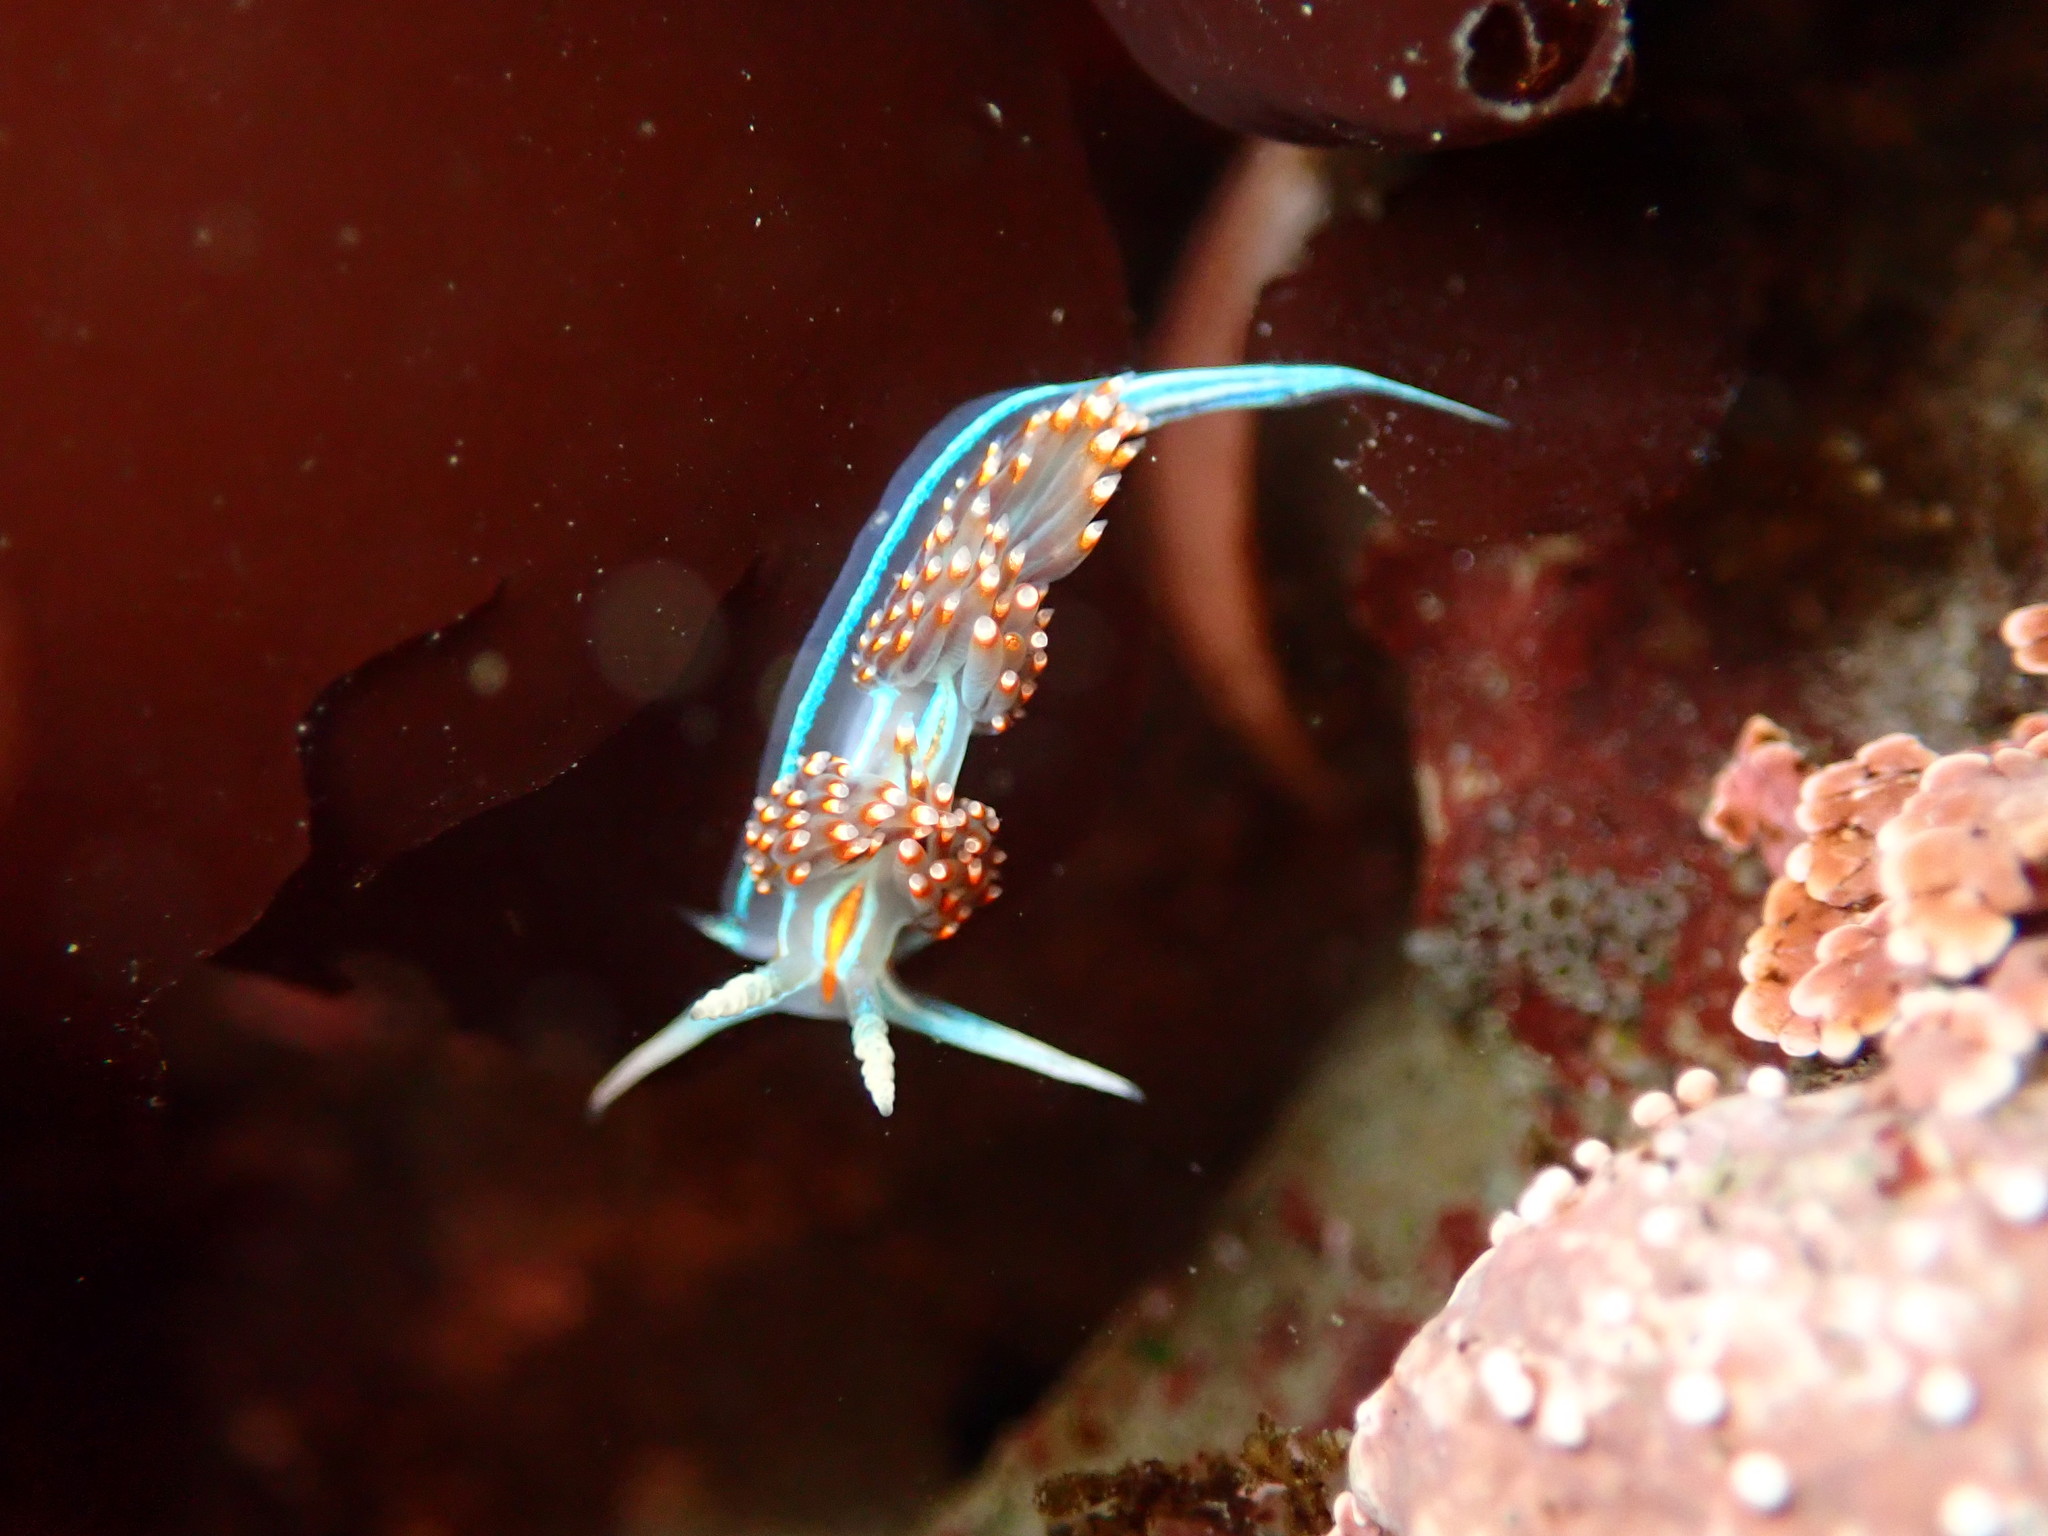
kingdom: Animalia
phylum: Mollusca
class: Gastropoda
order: Nudibranchia
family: Myrrhinidae
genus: Hermissenda
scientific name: Hermissenda opalescens
